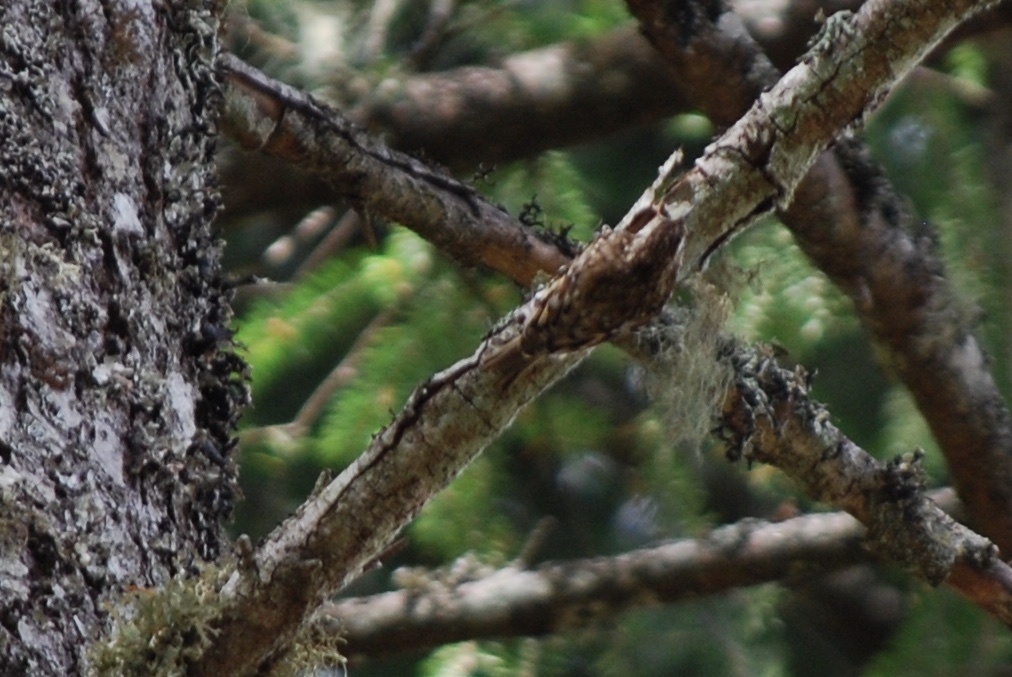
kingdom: Animalia
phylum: Chordata
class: Aves
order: Passeriformes
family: Certhiidae
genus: Certhia
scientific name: Certhia americana
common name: Brown creeper
